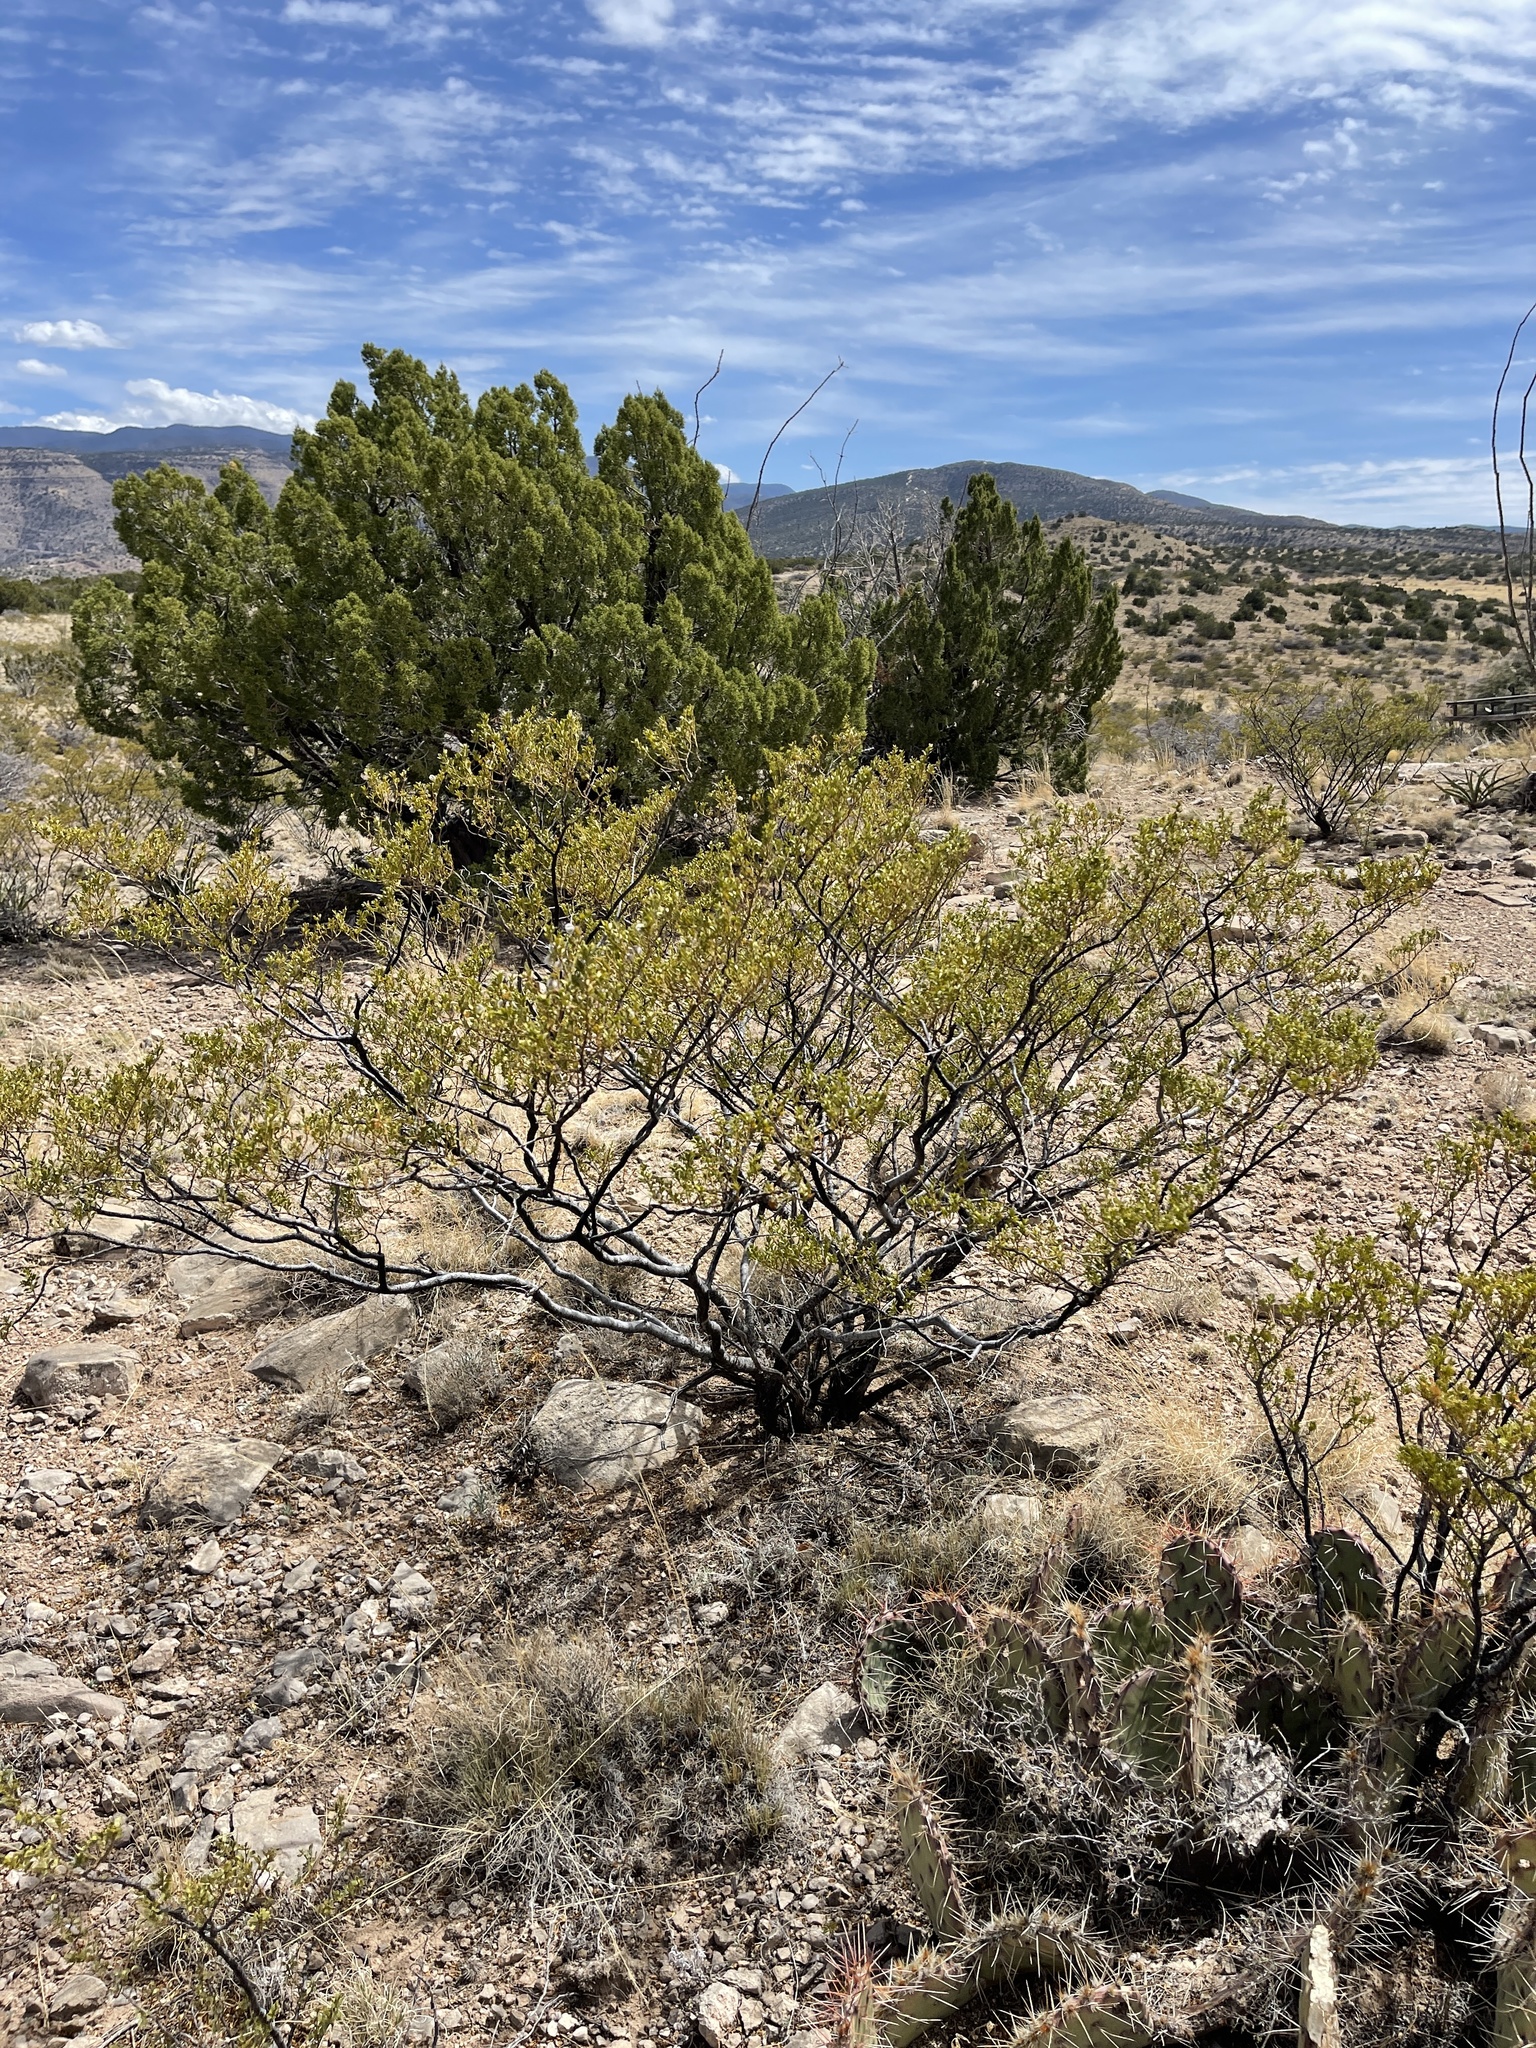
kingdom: Plantae
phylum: Tracheophyta
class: Magnoliopsida
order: Zygophyllales
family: Zygophyllaceae
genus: Larrea
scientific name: Larrea tridentata
